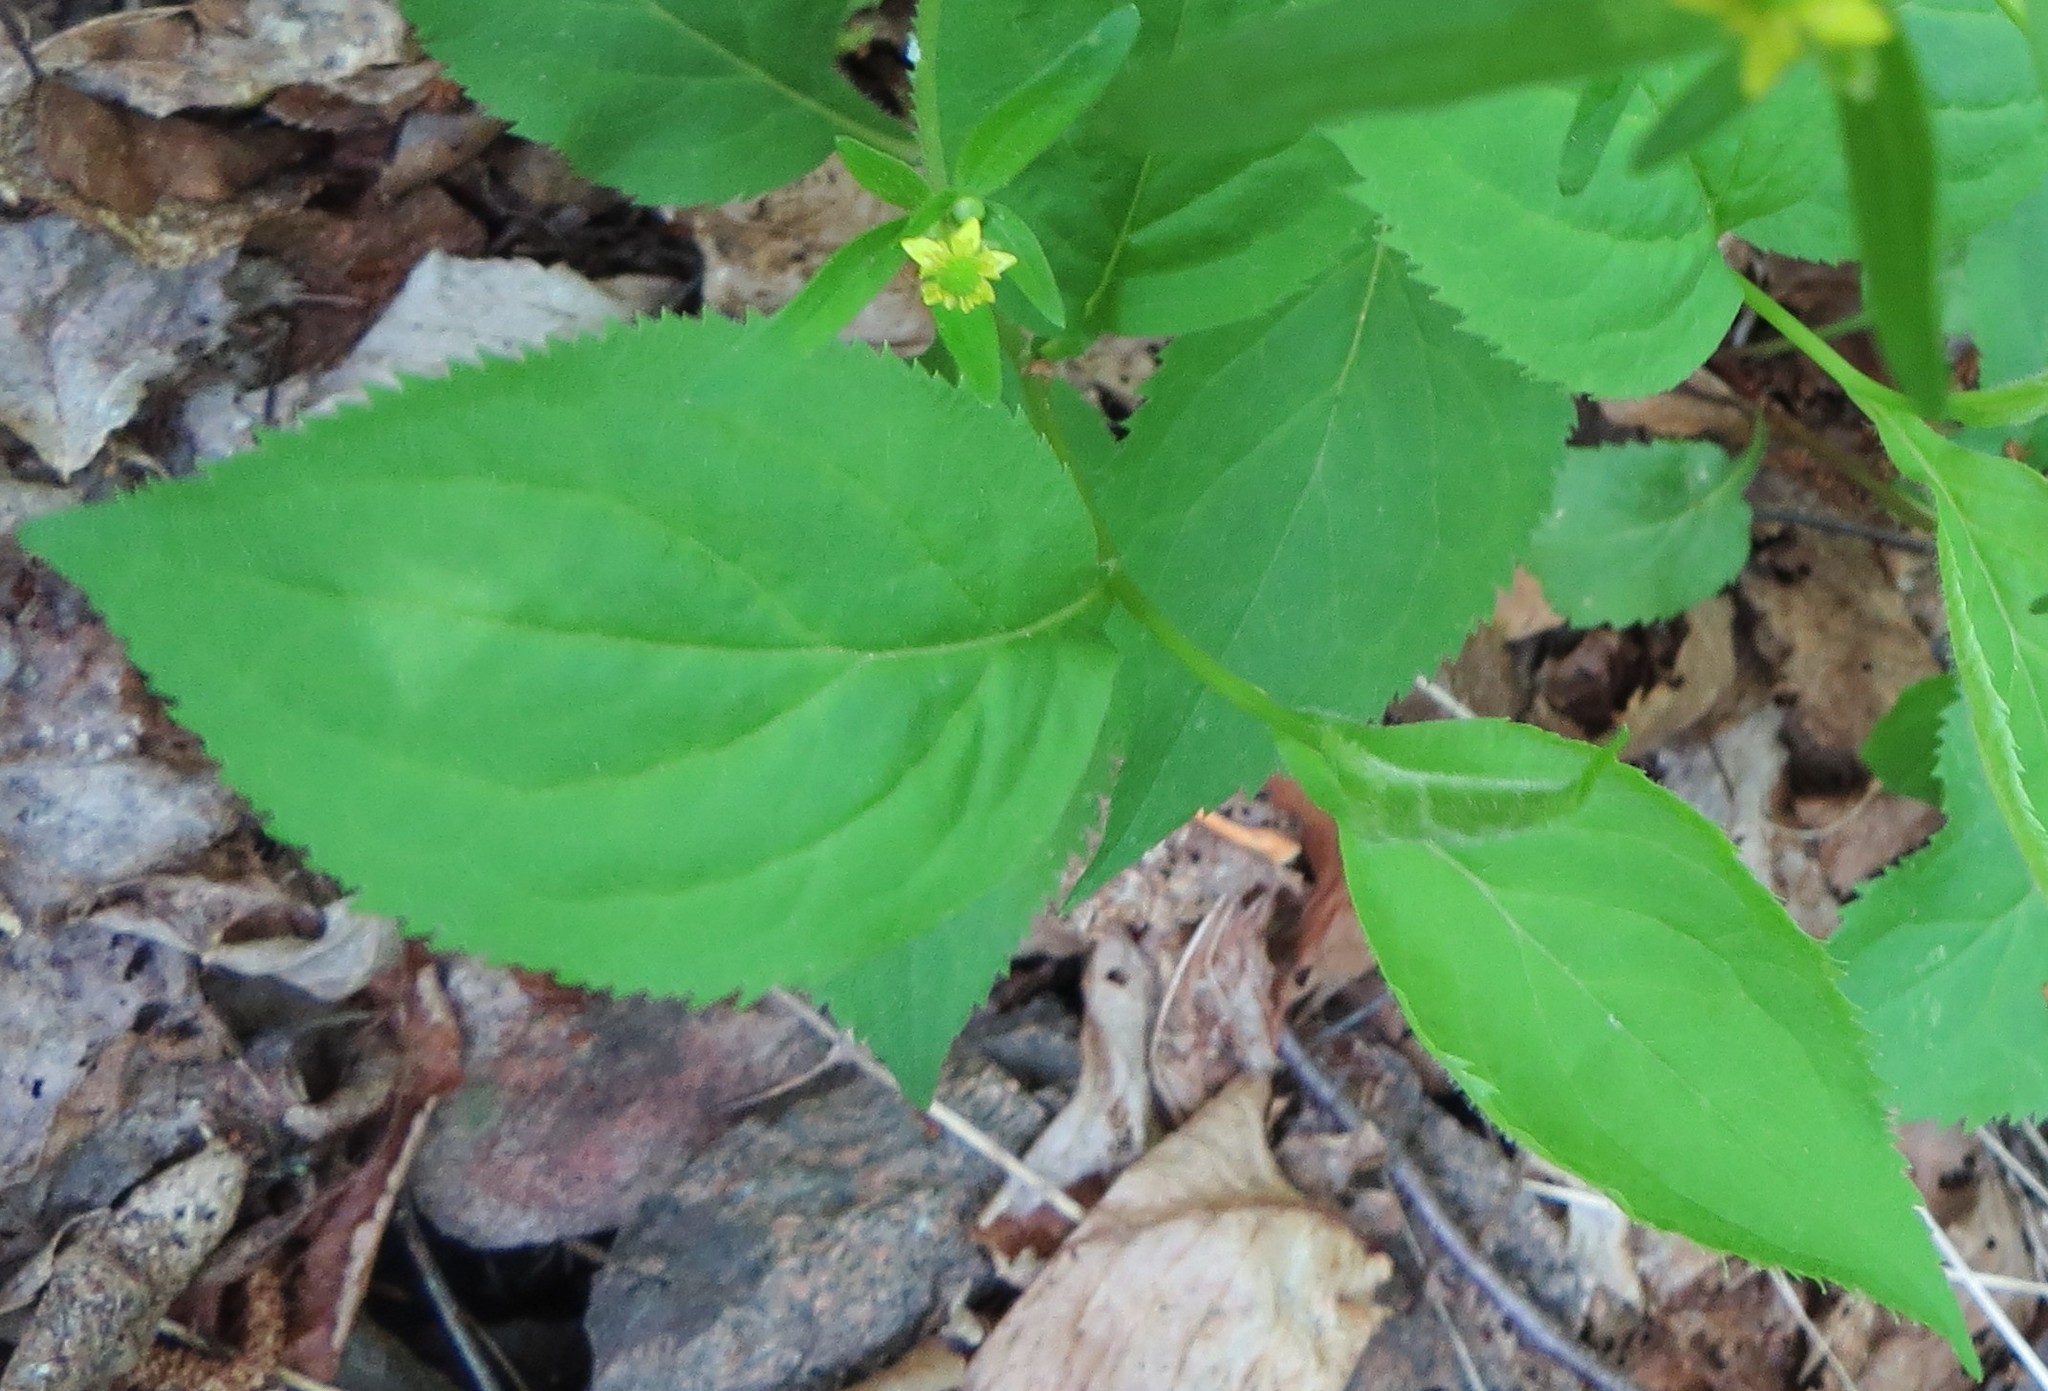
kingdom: Plantae
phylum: Tracheophyta
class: Magnoliopsida
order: Ranunculales
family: Ranunculaceae
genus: Ranunculus
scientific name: Ranunculus recurvatus
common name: Blisterwort
